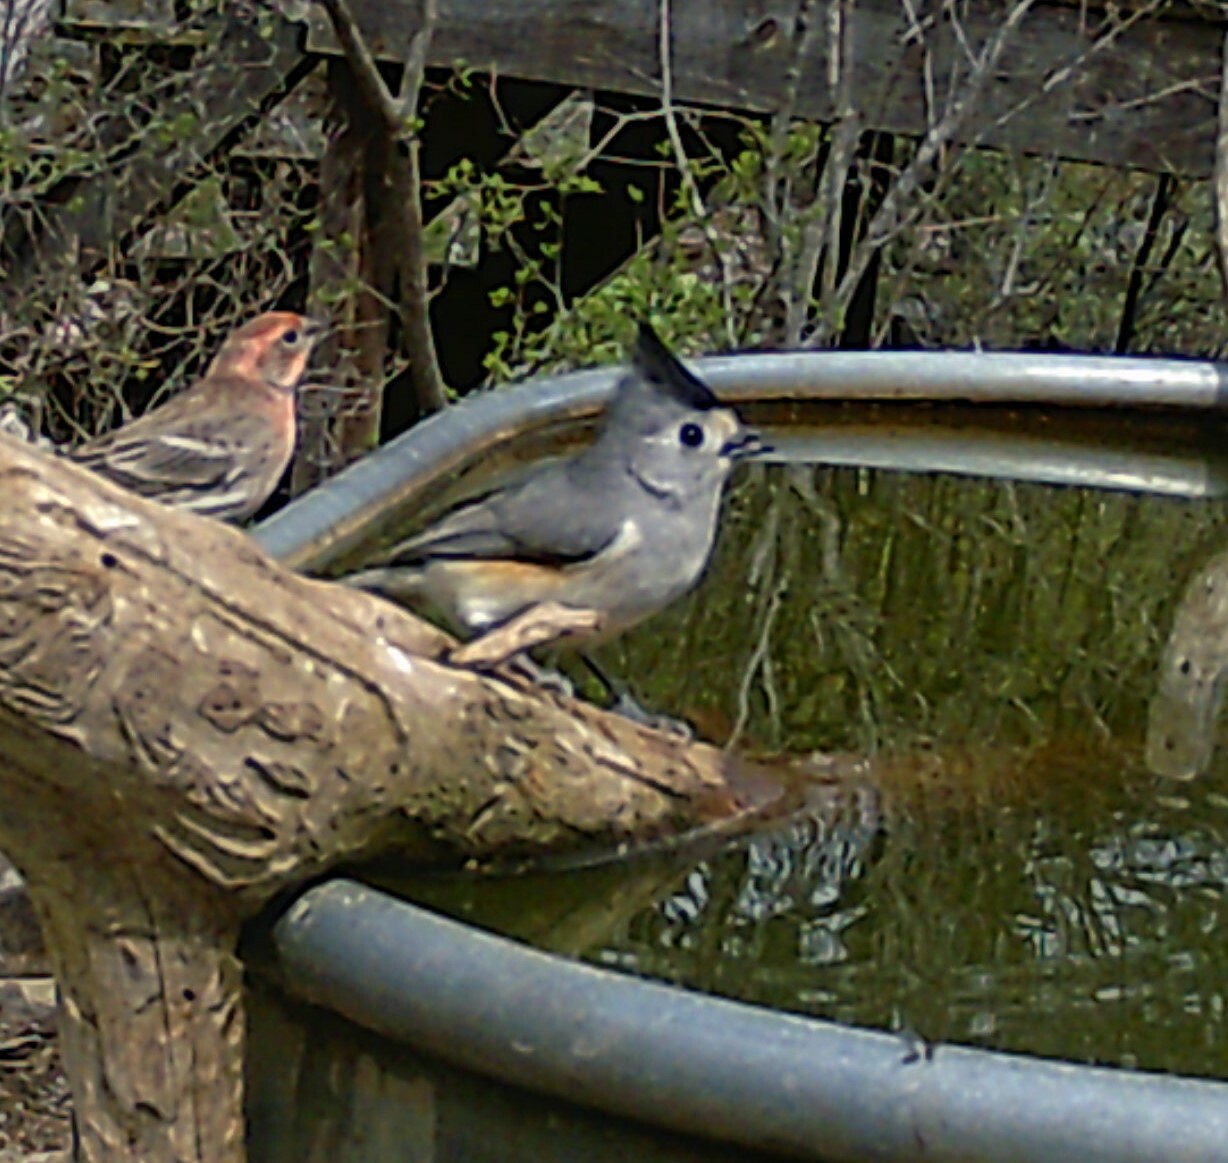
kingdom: Animalia
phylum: Chordata
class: Aves
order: Passeriformes
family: Paridae
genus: Baeolophus
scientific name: Baeolophus atricristatus
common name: Black-crested titmouse
